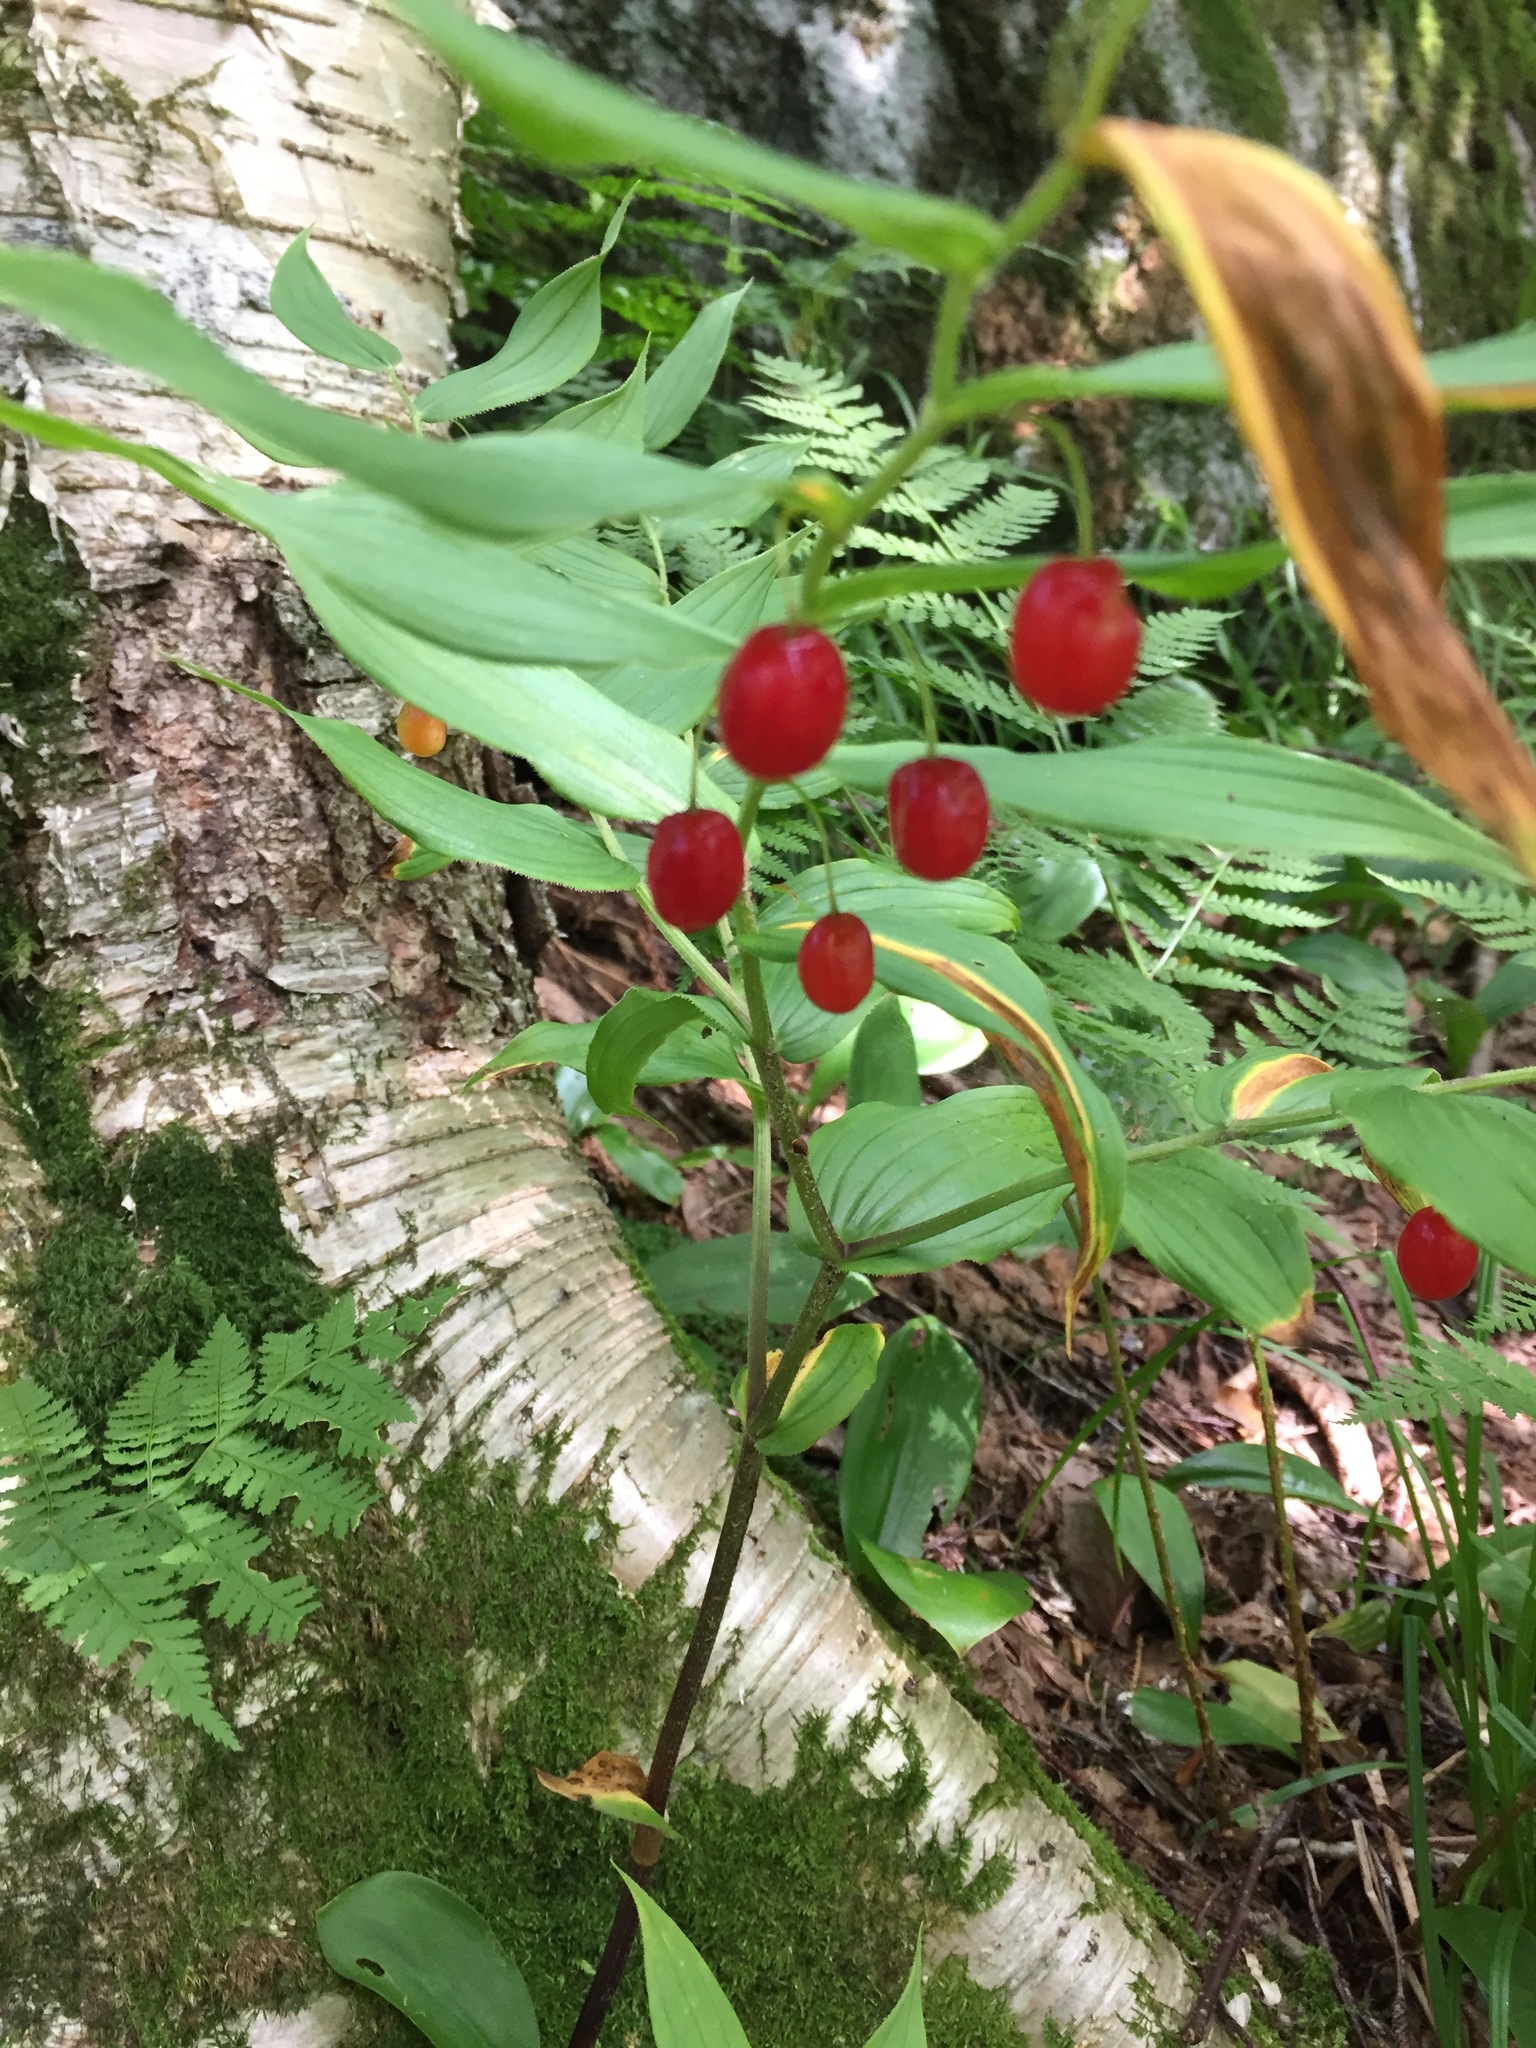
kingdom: Plantae
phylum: Tracheophyta
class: Liliopsida
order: Liliales
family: Liliaceae
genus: Streptopus
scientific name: Streptopus lanceolatus
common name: Rose mandarin
